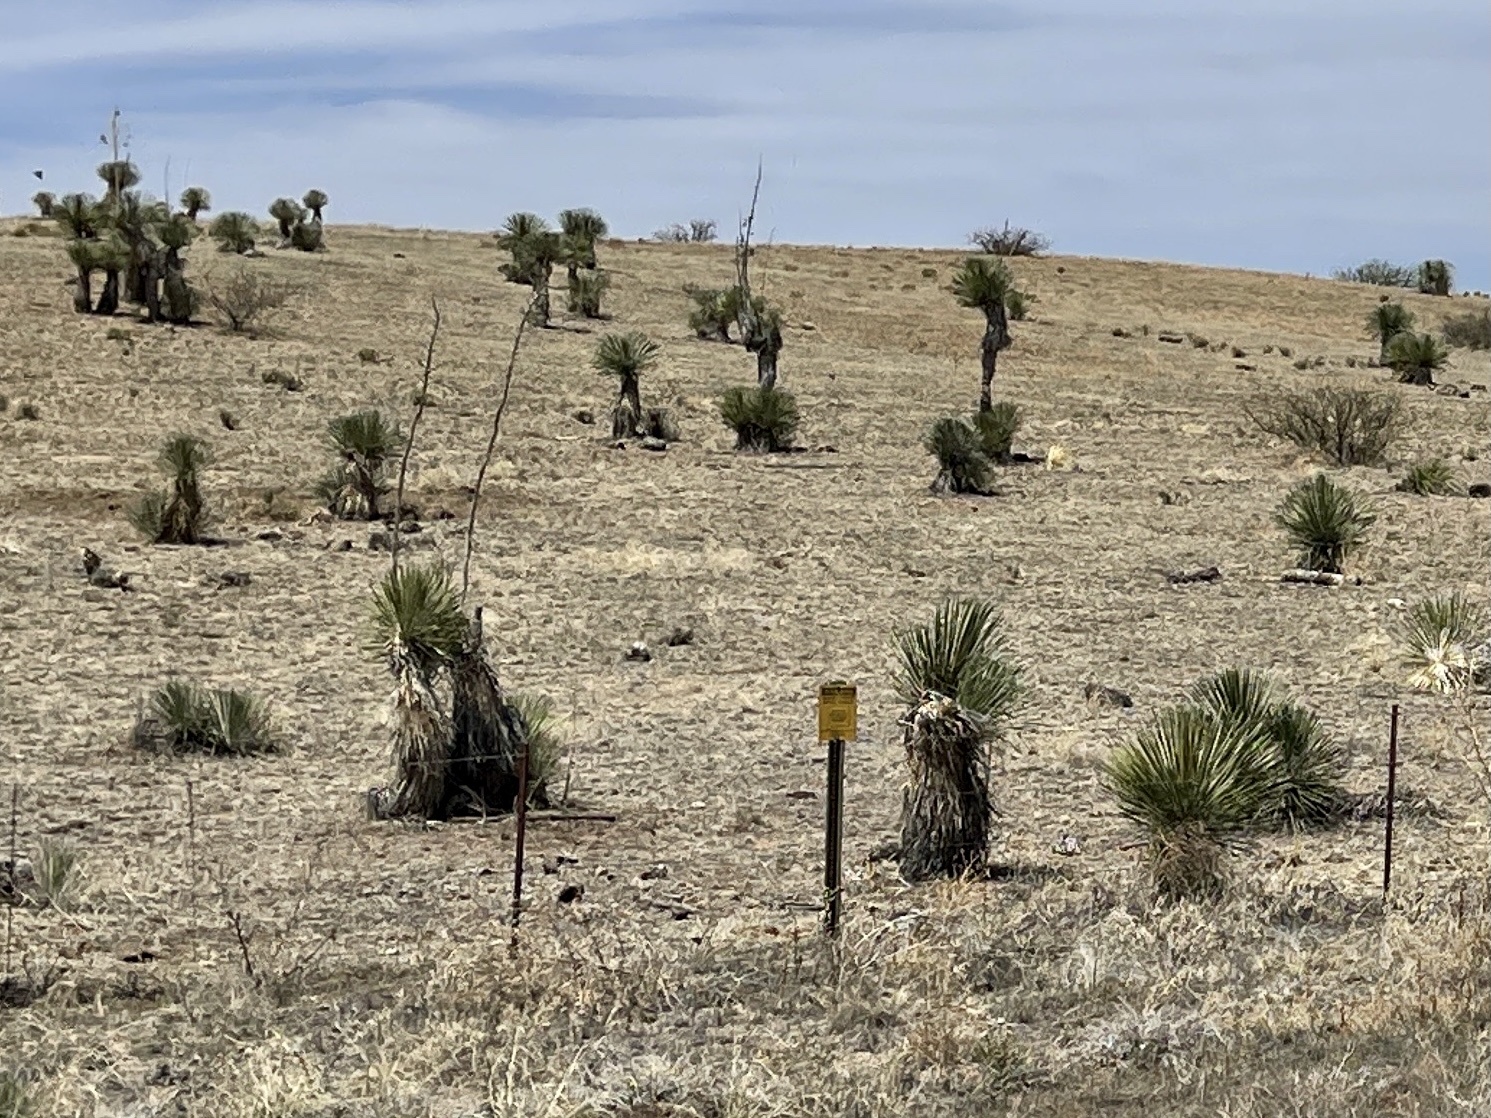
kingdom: Plantae
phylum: Tracheophyta
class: Liliopsida
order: Asparagales
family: Asparagaceae
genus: Yucca
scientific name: Yucca elata
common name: Palmella
